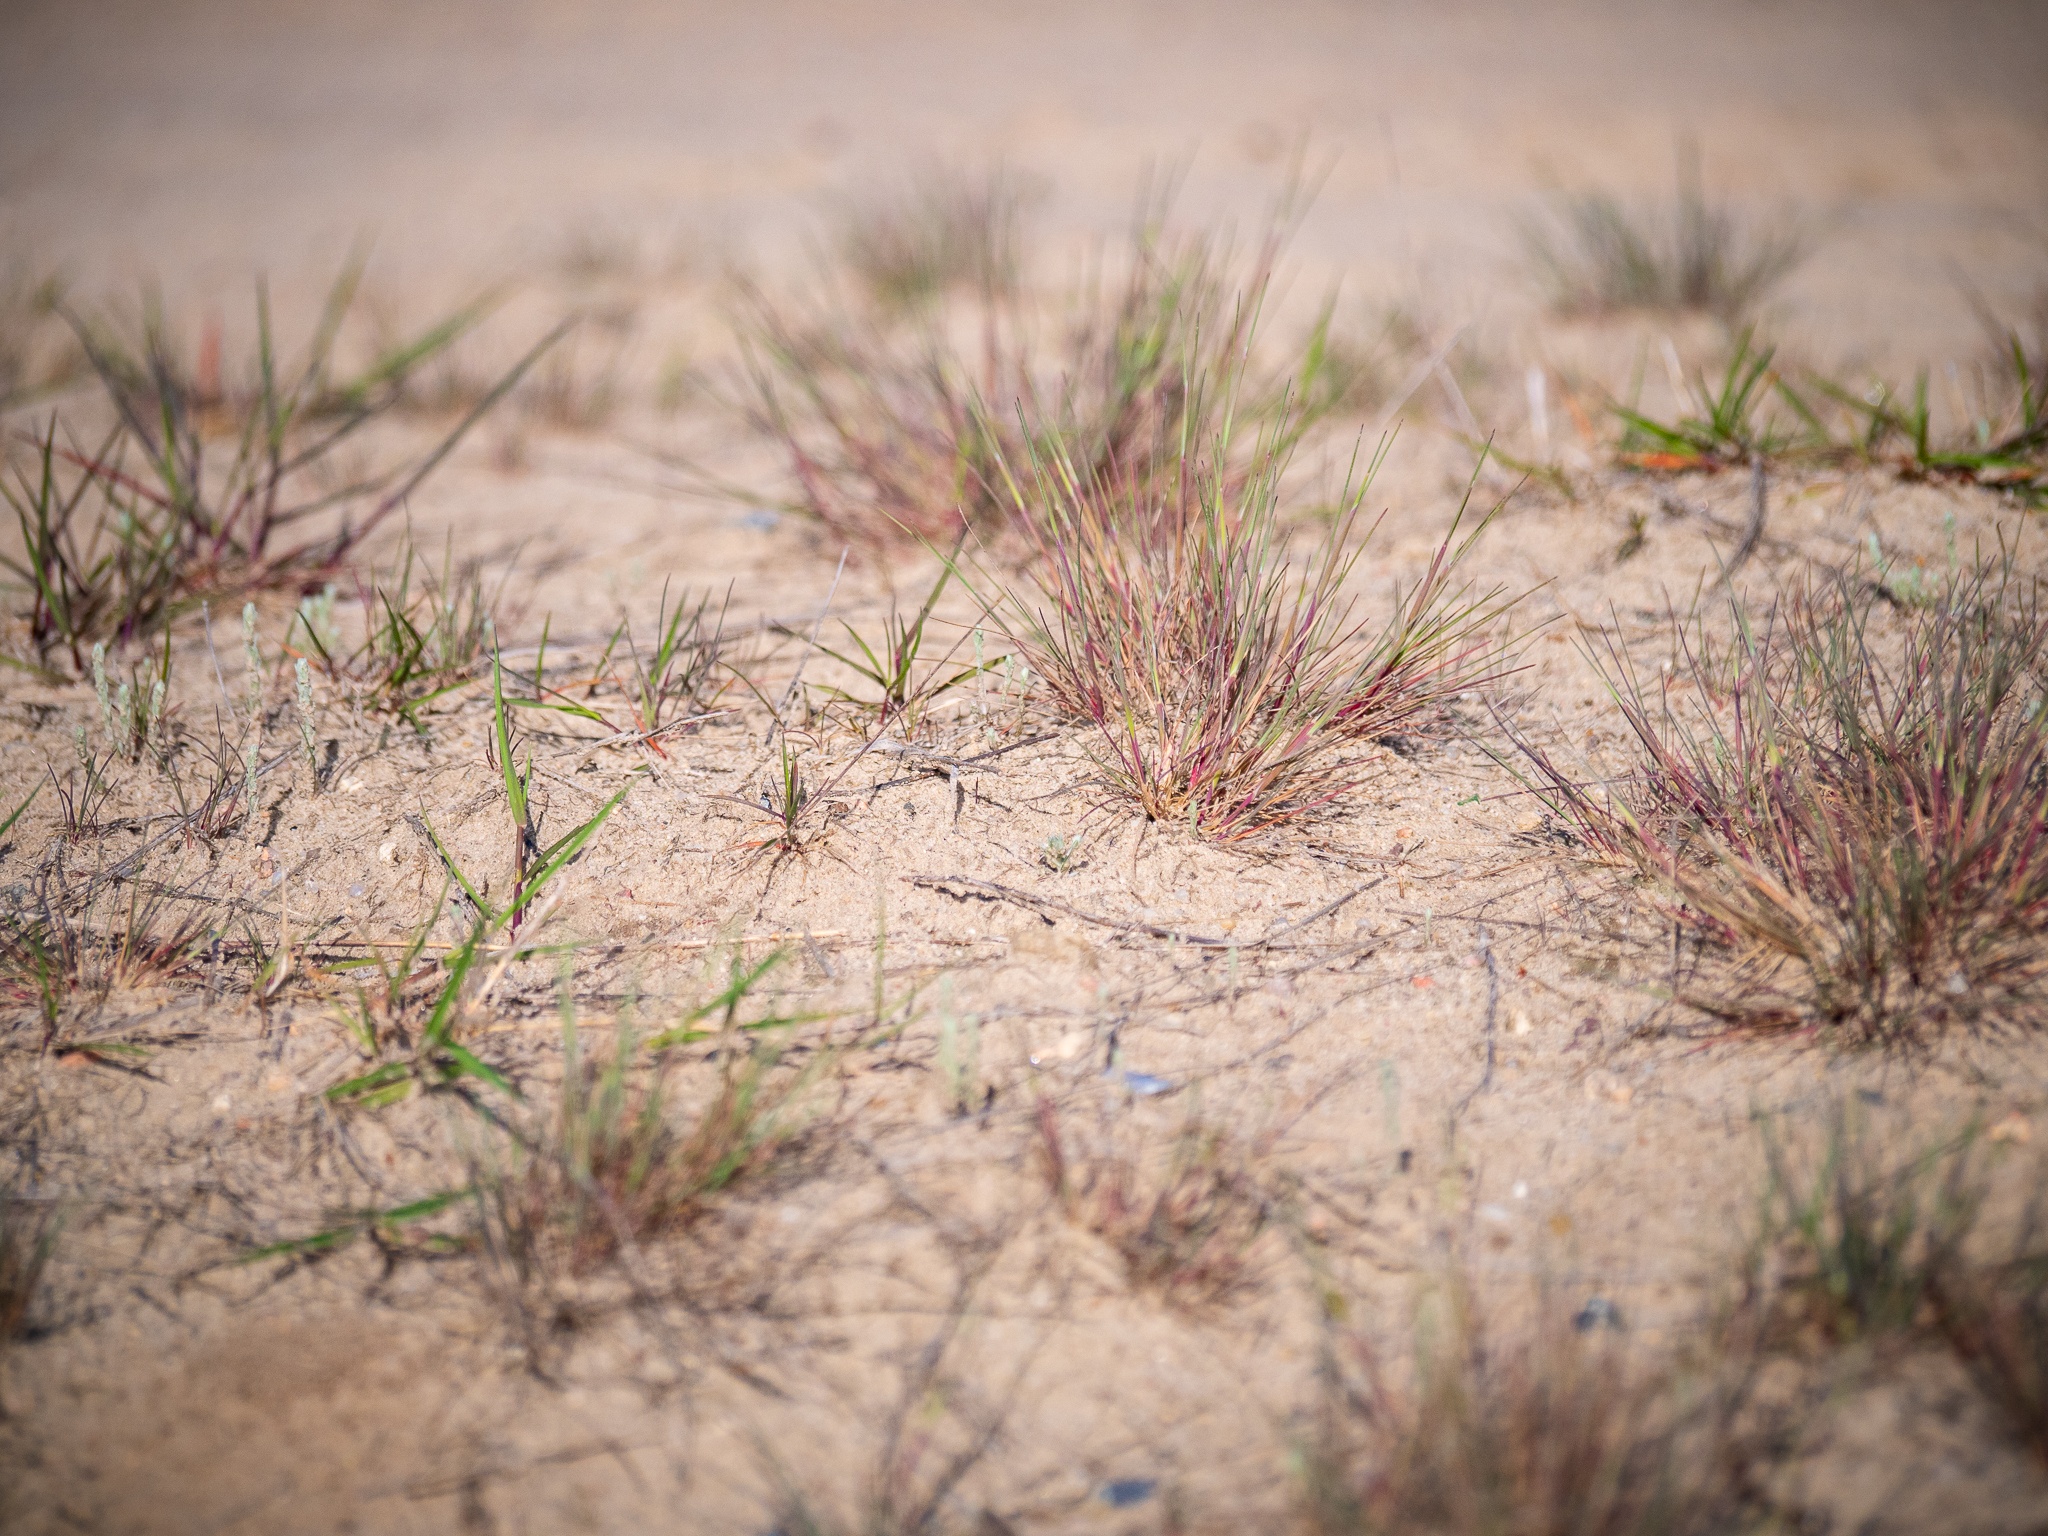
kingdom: Plantae
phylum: Tracheophyta
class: Liliopsida
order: Poales
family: Poaceae
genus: Corynephorus
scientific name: Corynephorus canescens
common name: Grey hair-grass
